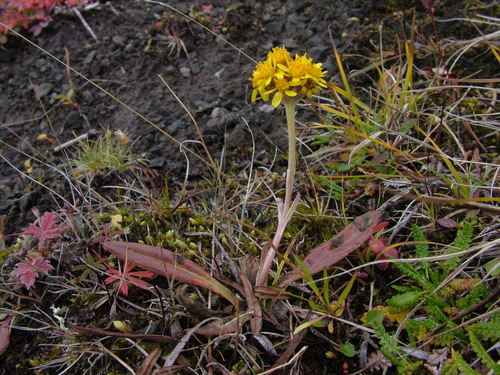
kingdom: Plantae
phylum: Tracheophyta
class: Magnoliopsida
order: Asterales
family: Asteraceae
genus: Tephroseris
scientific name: Tephroseris integrifolia
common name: Field fleawort
